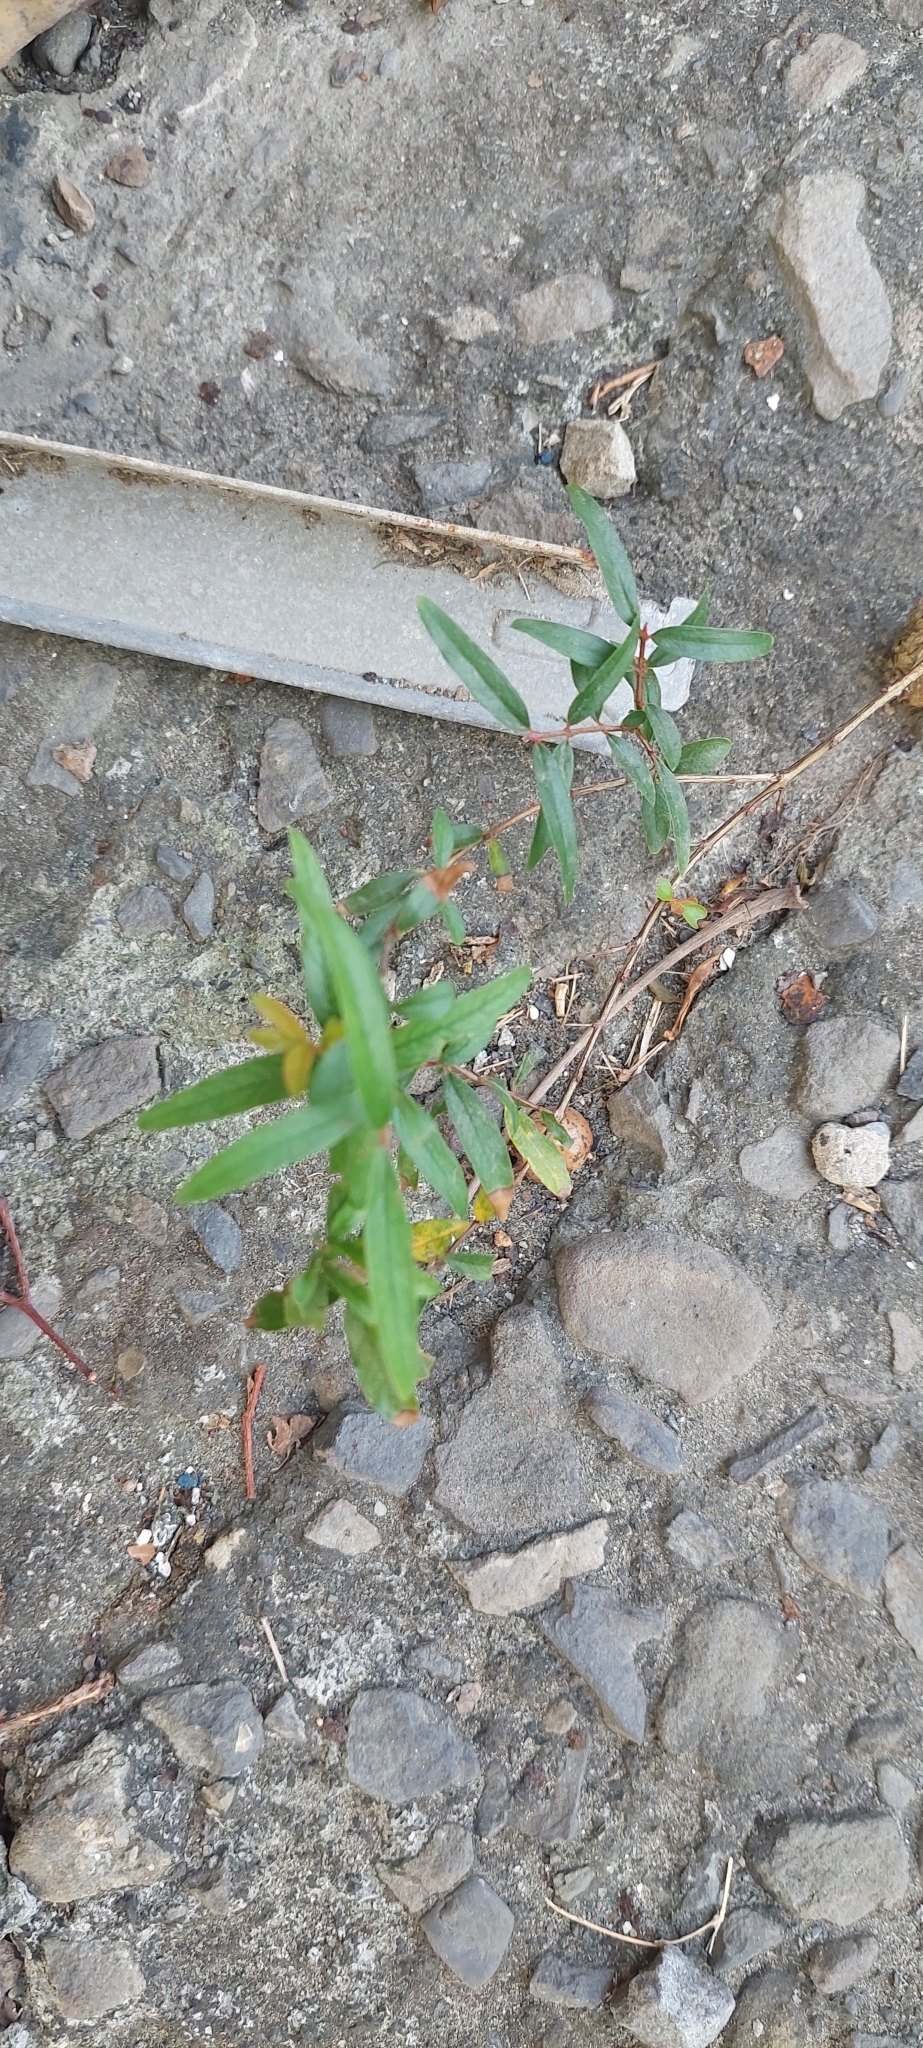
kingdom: Plantae
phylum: Tracheophyta
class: Magnoliopsida
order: Gentianales
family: Rubiaceae
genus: Paederia
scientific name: Paederia foetida
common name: Stinkvine
